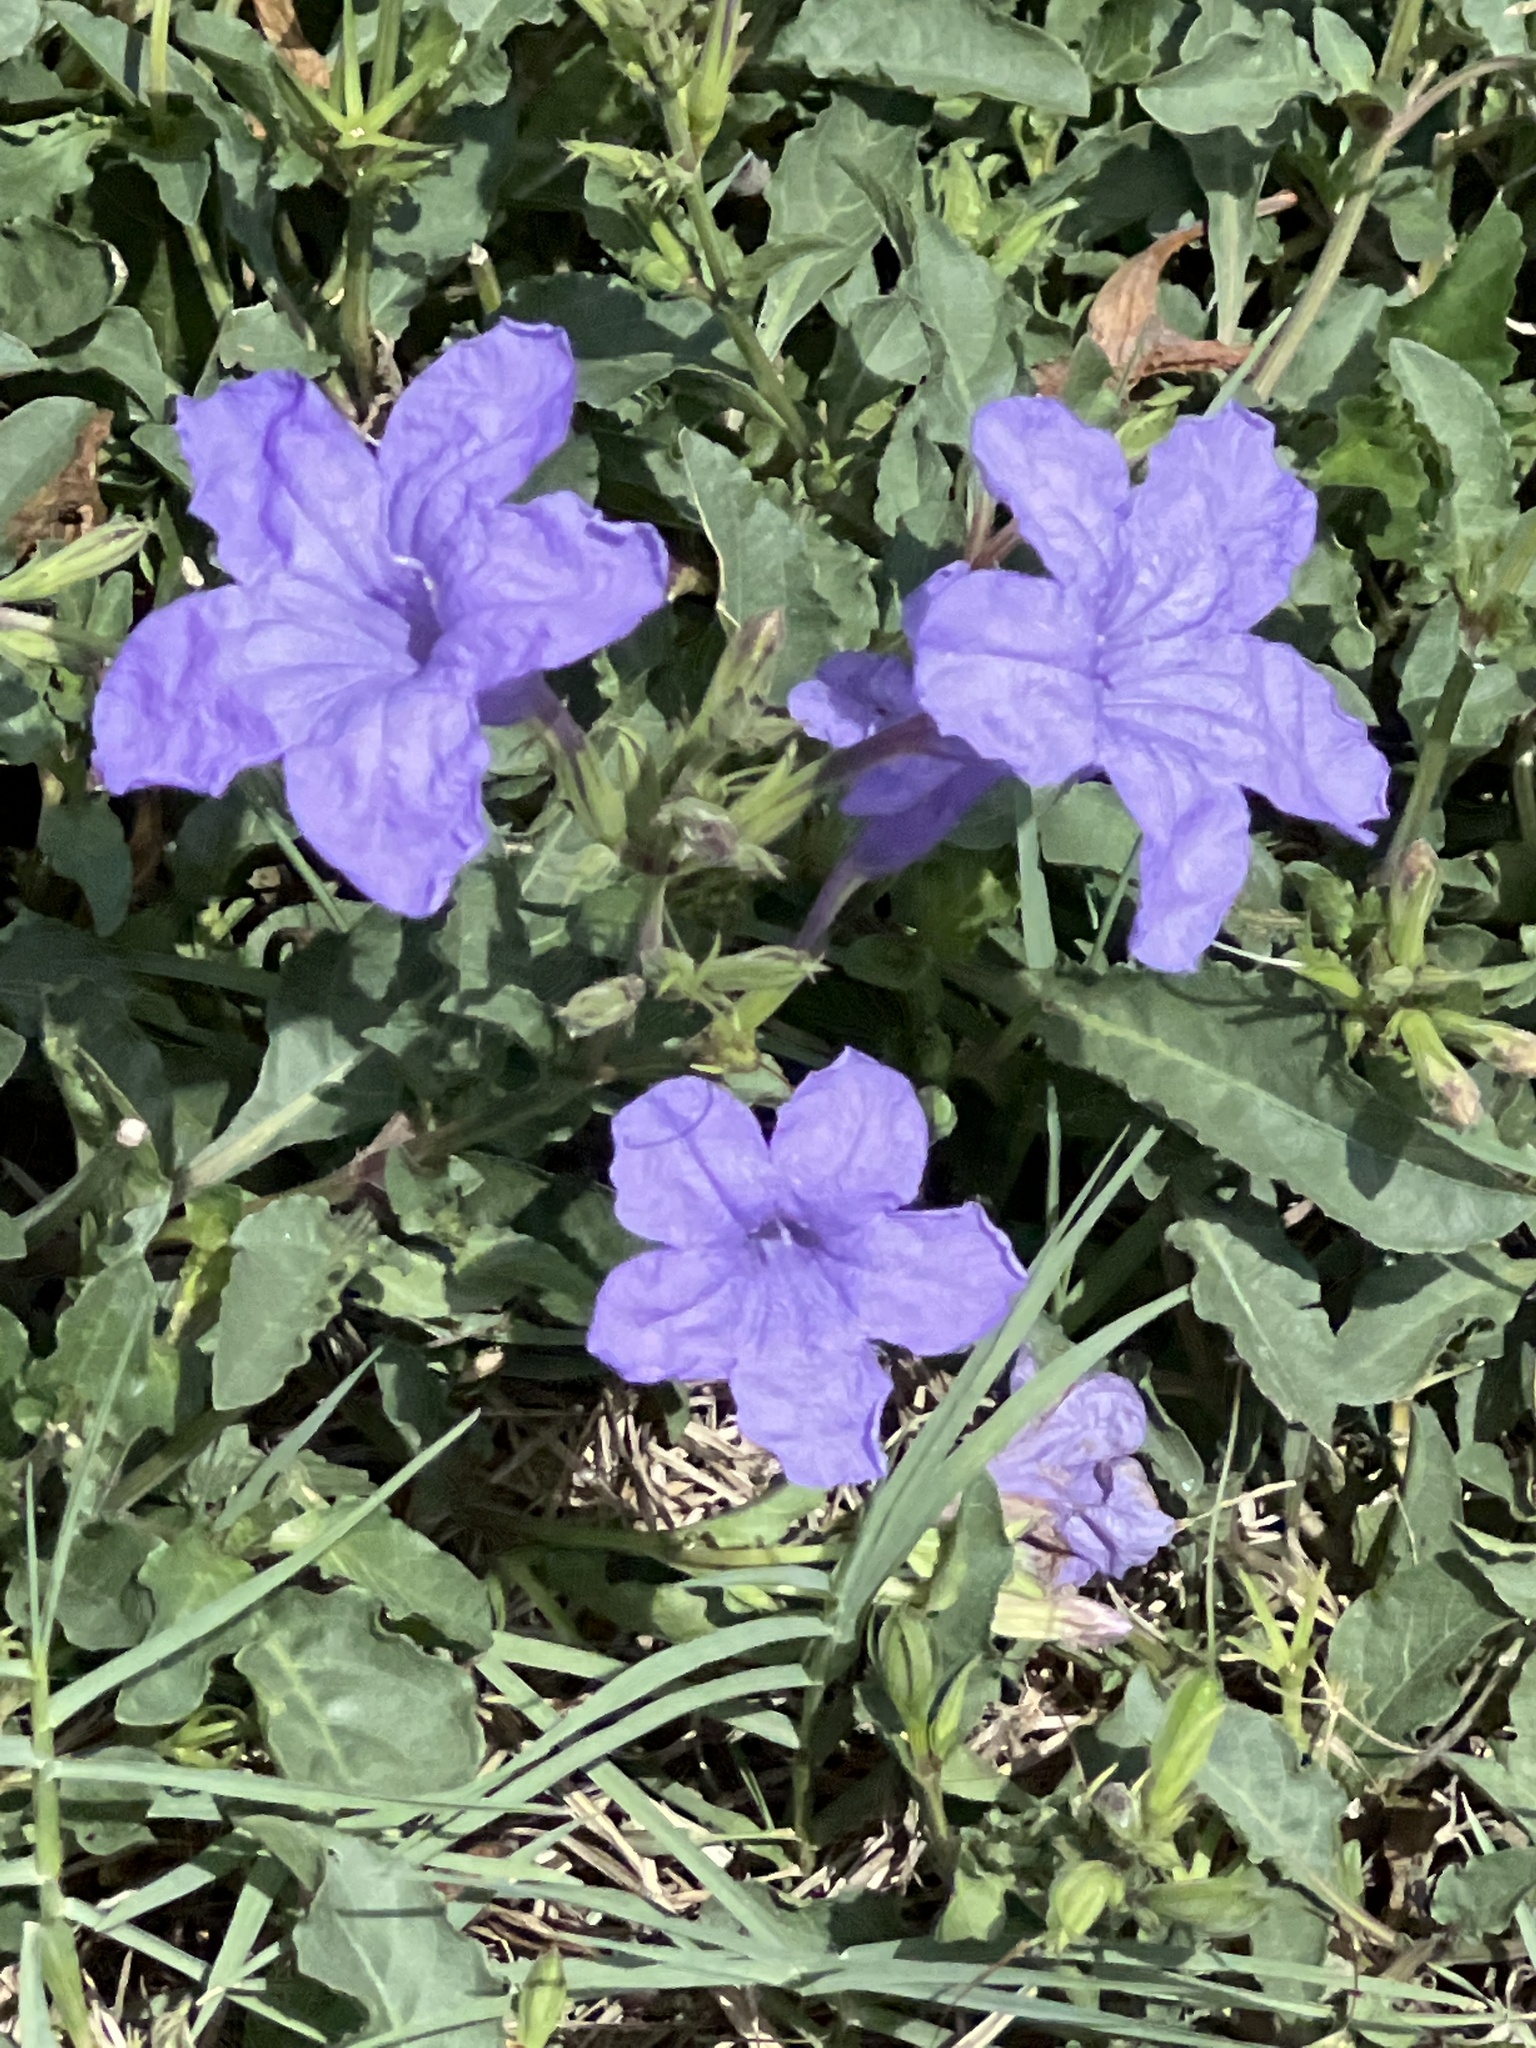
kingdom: Plantae
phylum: Tracheophyta
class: Magnoliopsida
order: Lamiales
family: Acanthaceae
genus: Ruellia
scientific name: Ruellia ciliatiflora
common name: Hairyflower wild petunia
